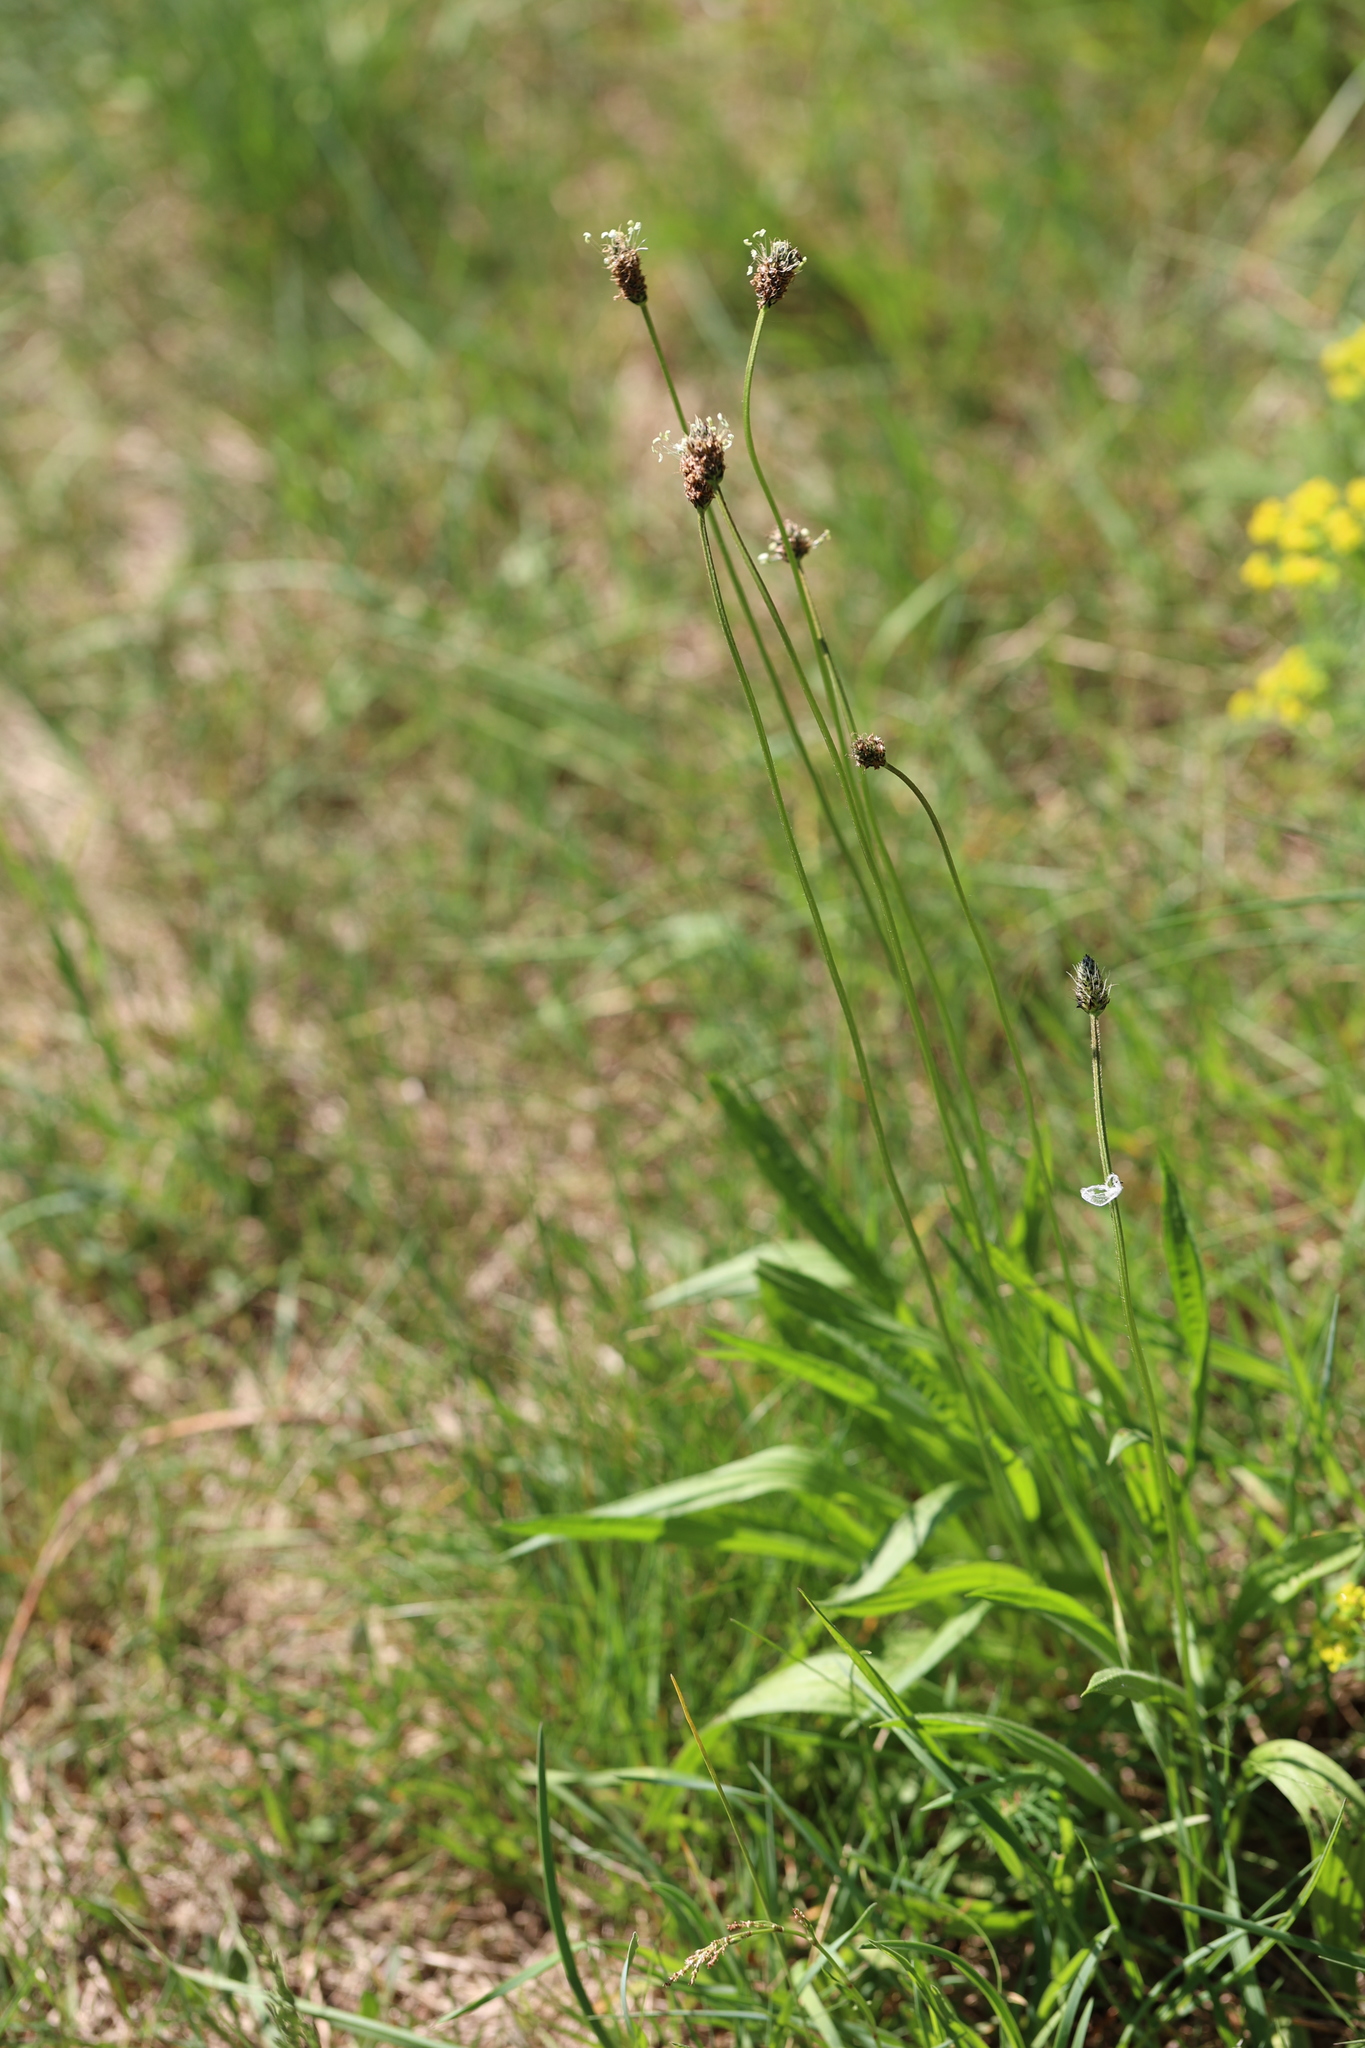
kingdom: Plantae
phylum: Tracheophyta
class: Magnoliopsida
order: Lamiales
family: Plantaginaceae
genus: Plantago
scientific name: Plantago lanceolata
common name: Ribwort plantain
